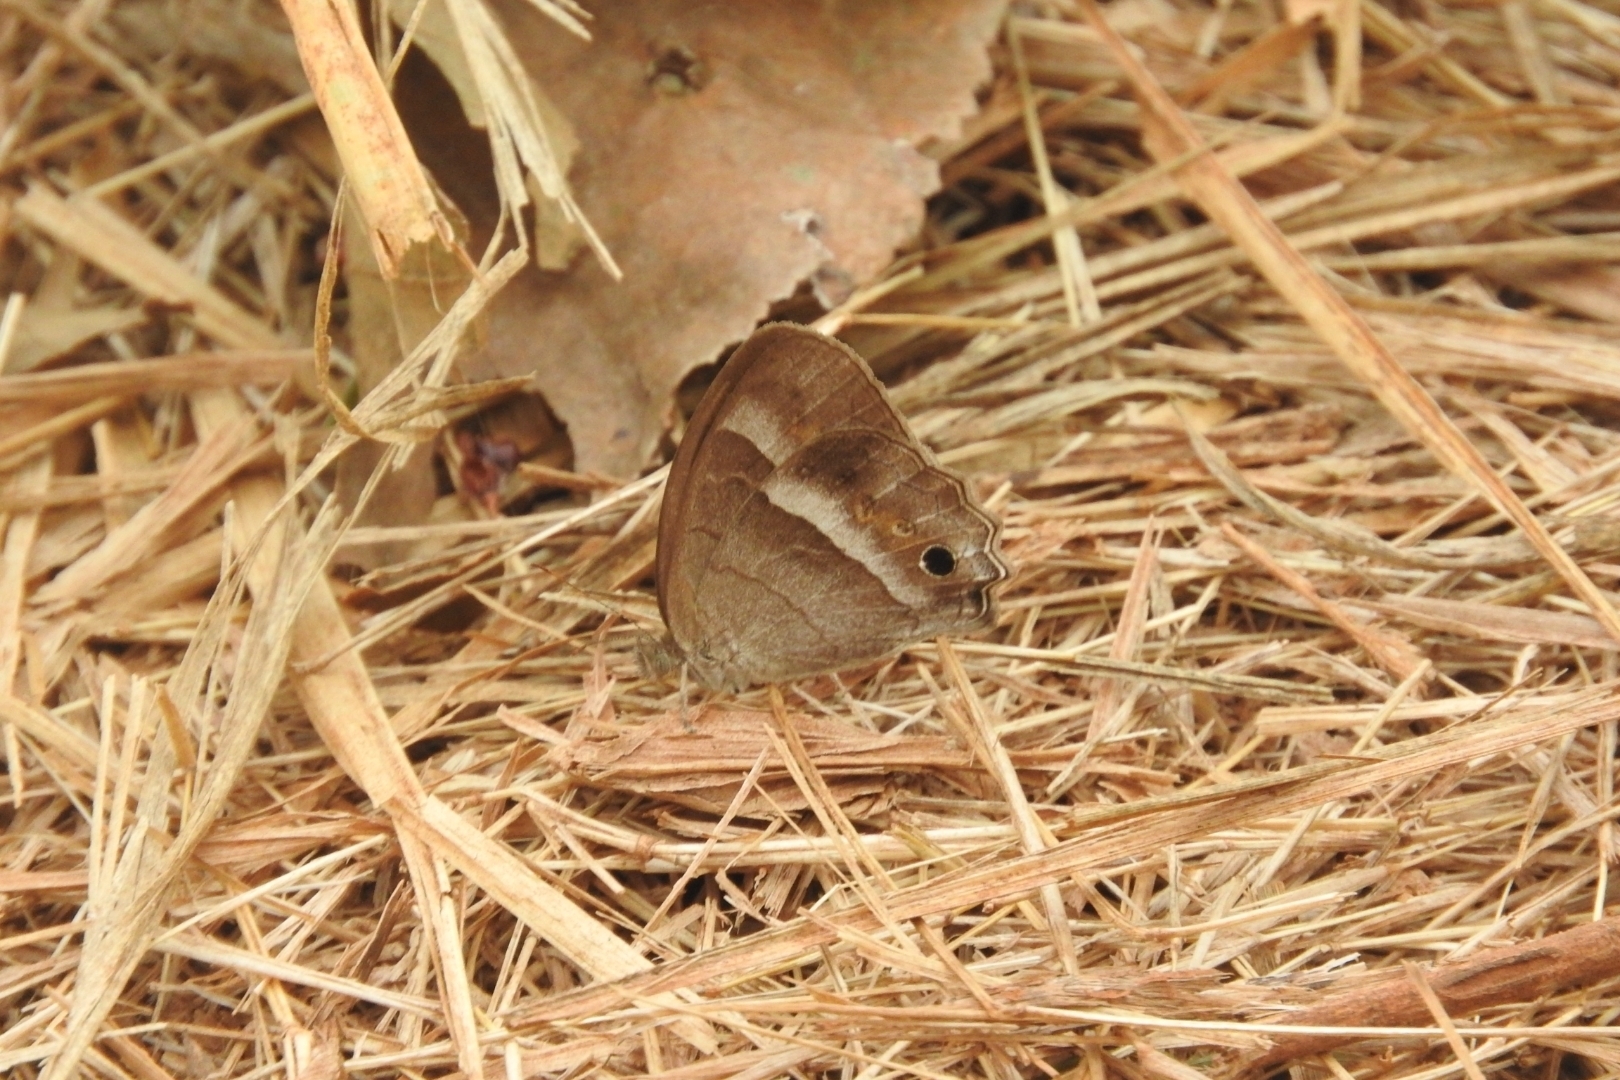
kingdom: Animalia
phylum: Arthropoda
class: Insecta
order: Lepidoptera
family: Nymphalidae
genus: Vareuptychia
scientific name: Vareuptychia similis
